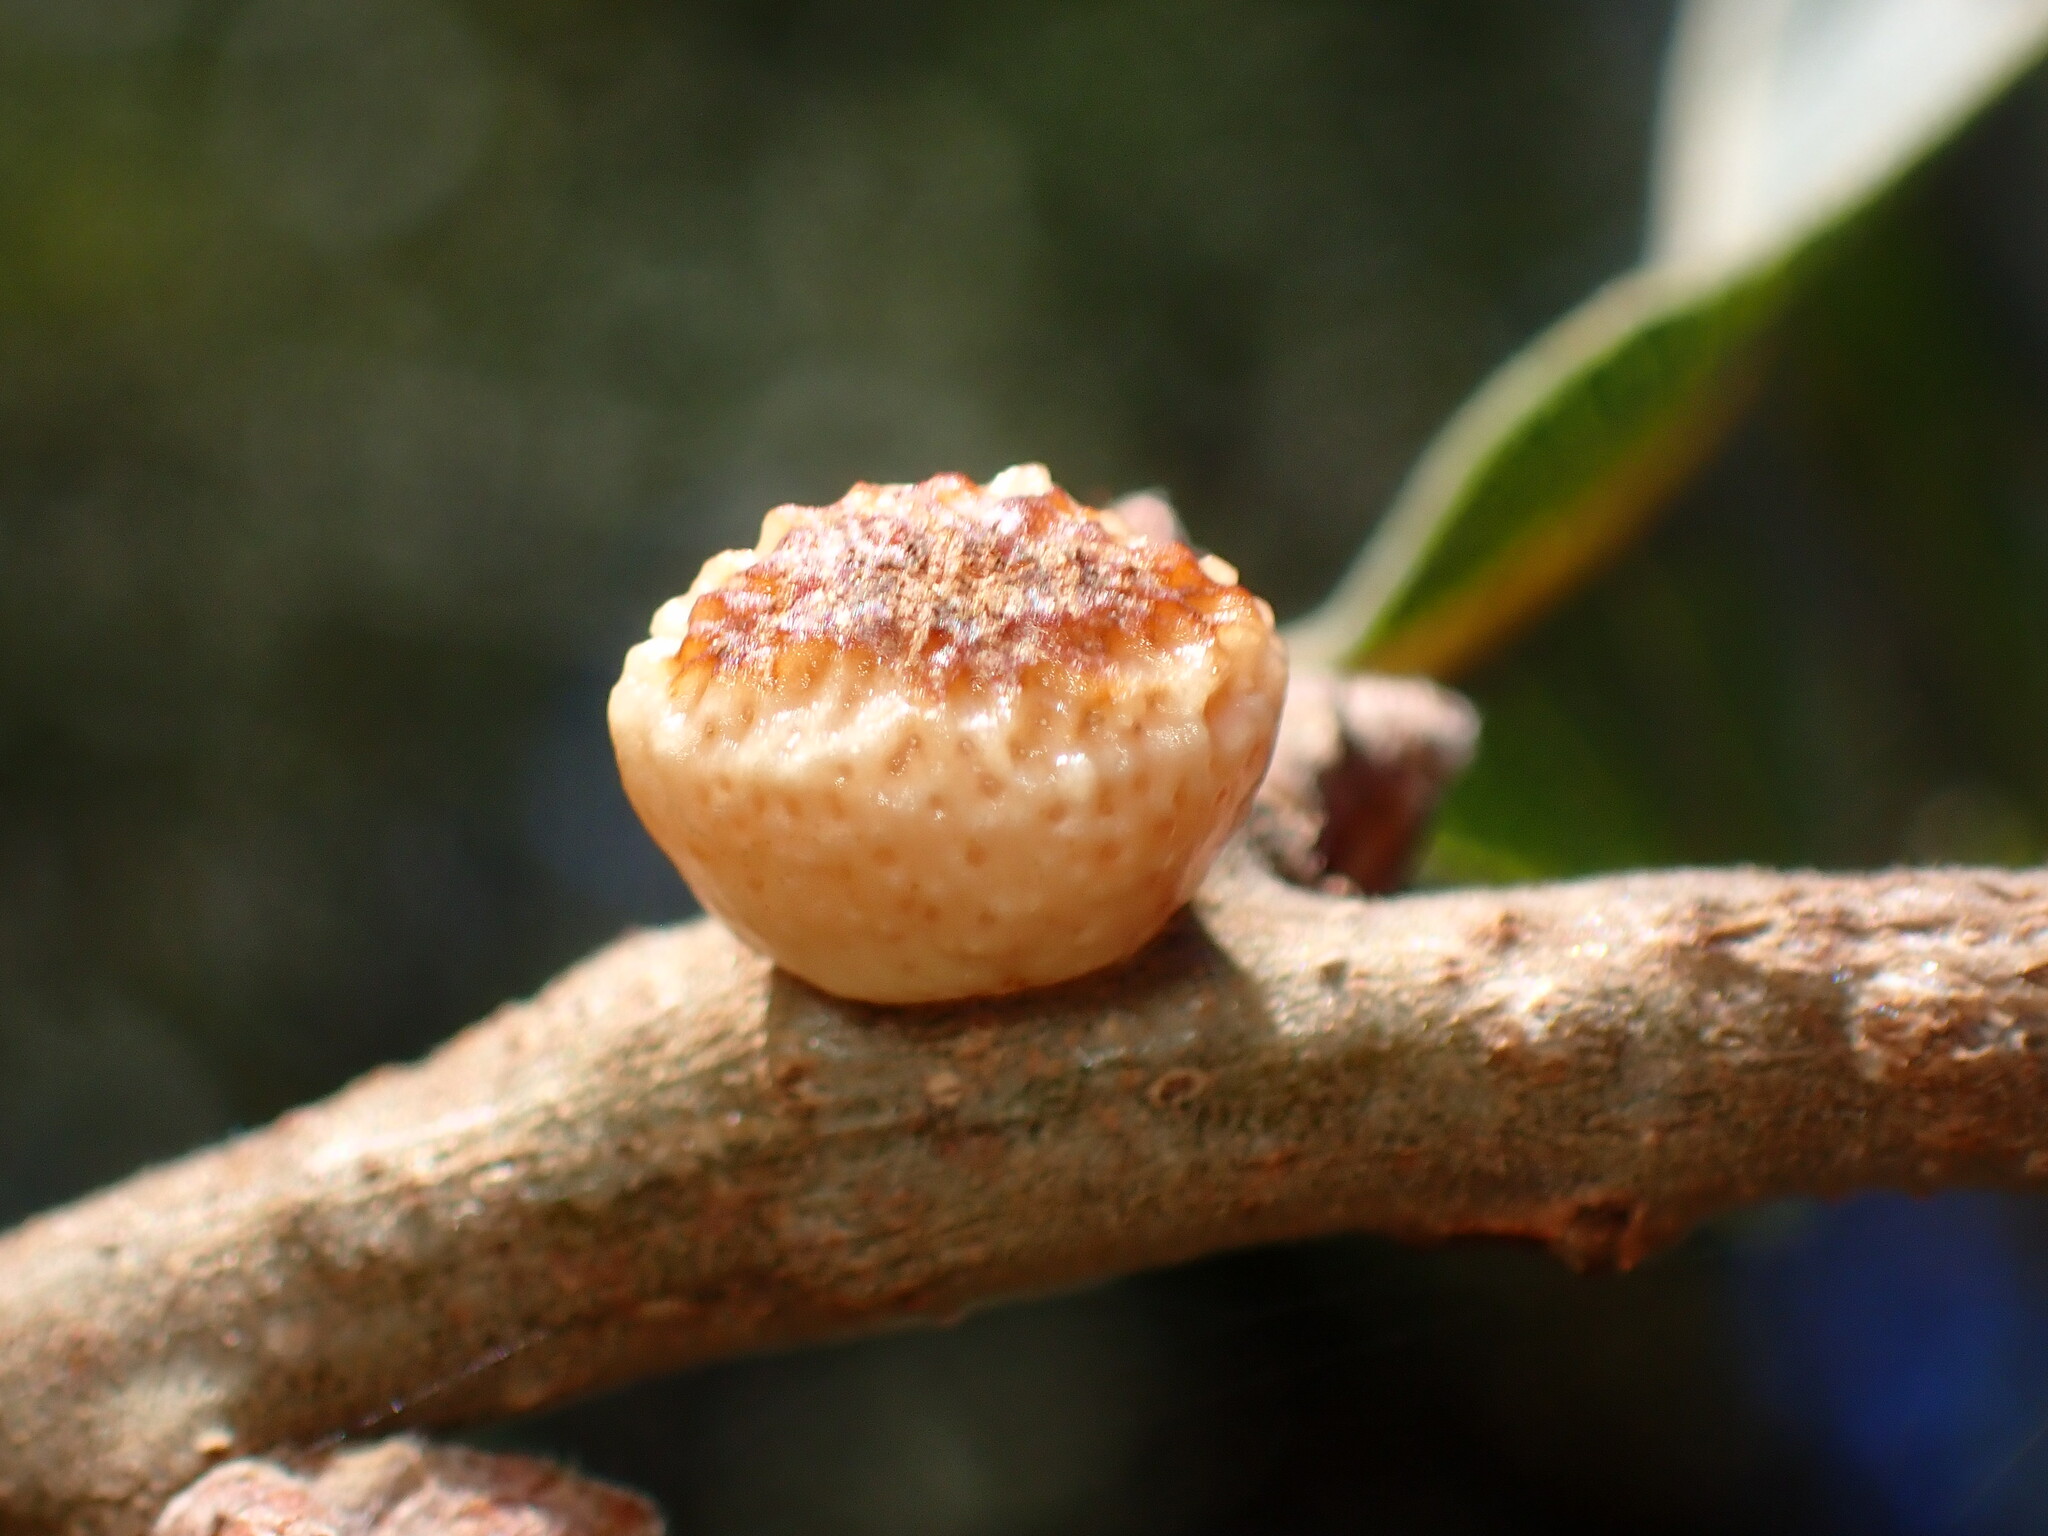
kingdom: Animalia
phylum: Arthropoda
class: Insecta
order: Hymenoptera
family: Cynipidae
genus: Disholcaspis
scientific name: Disholcaspis
